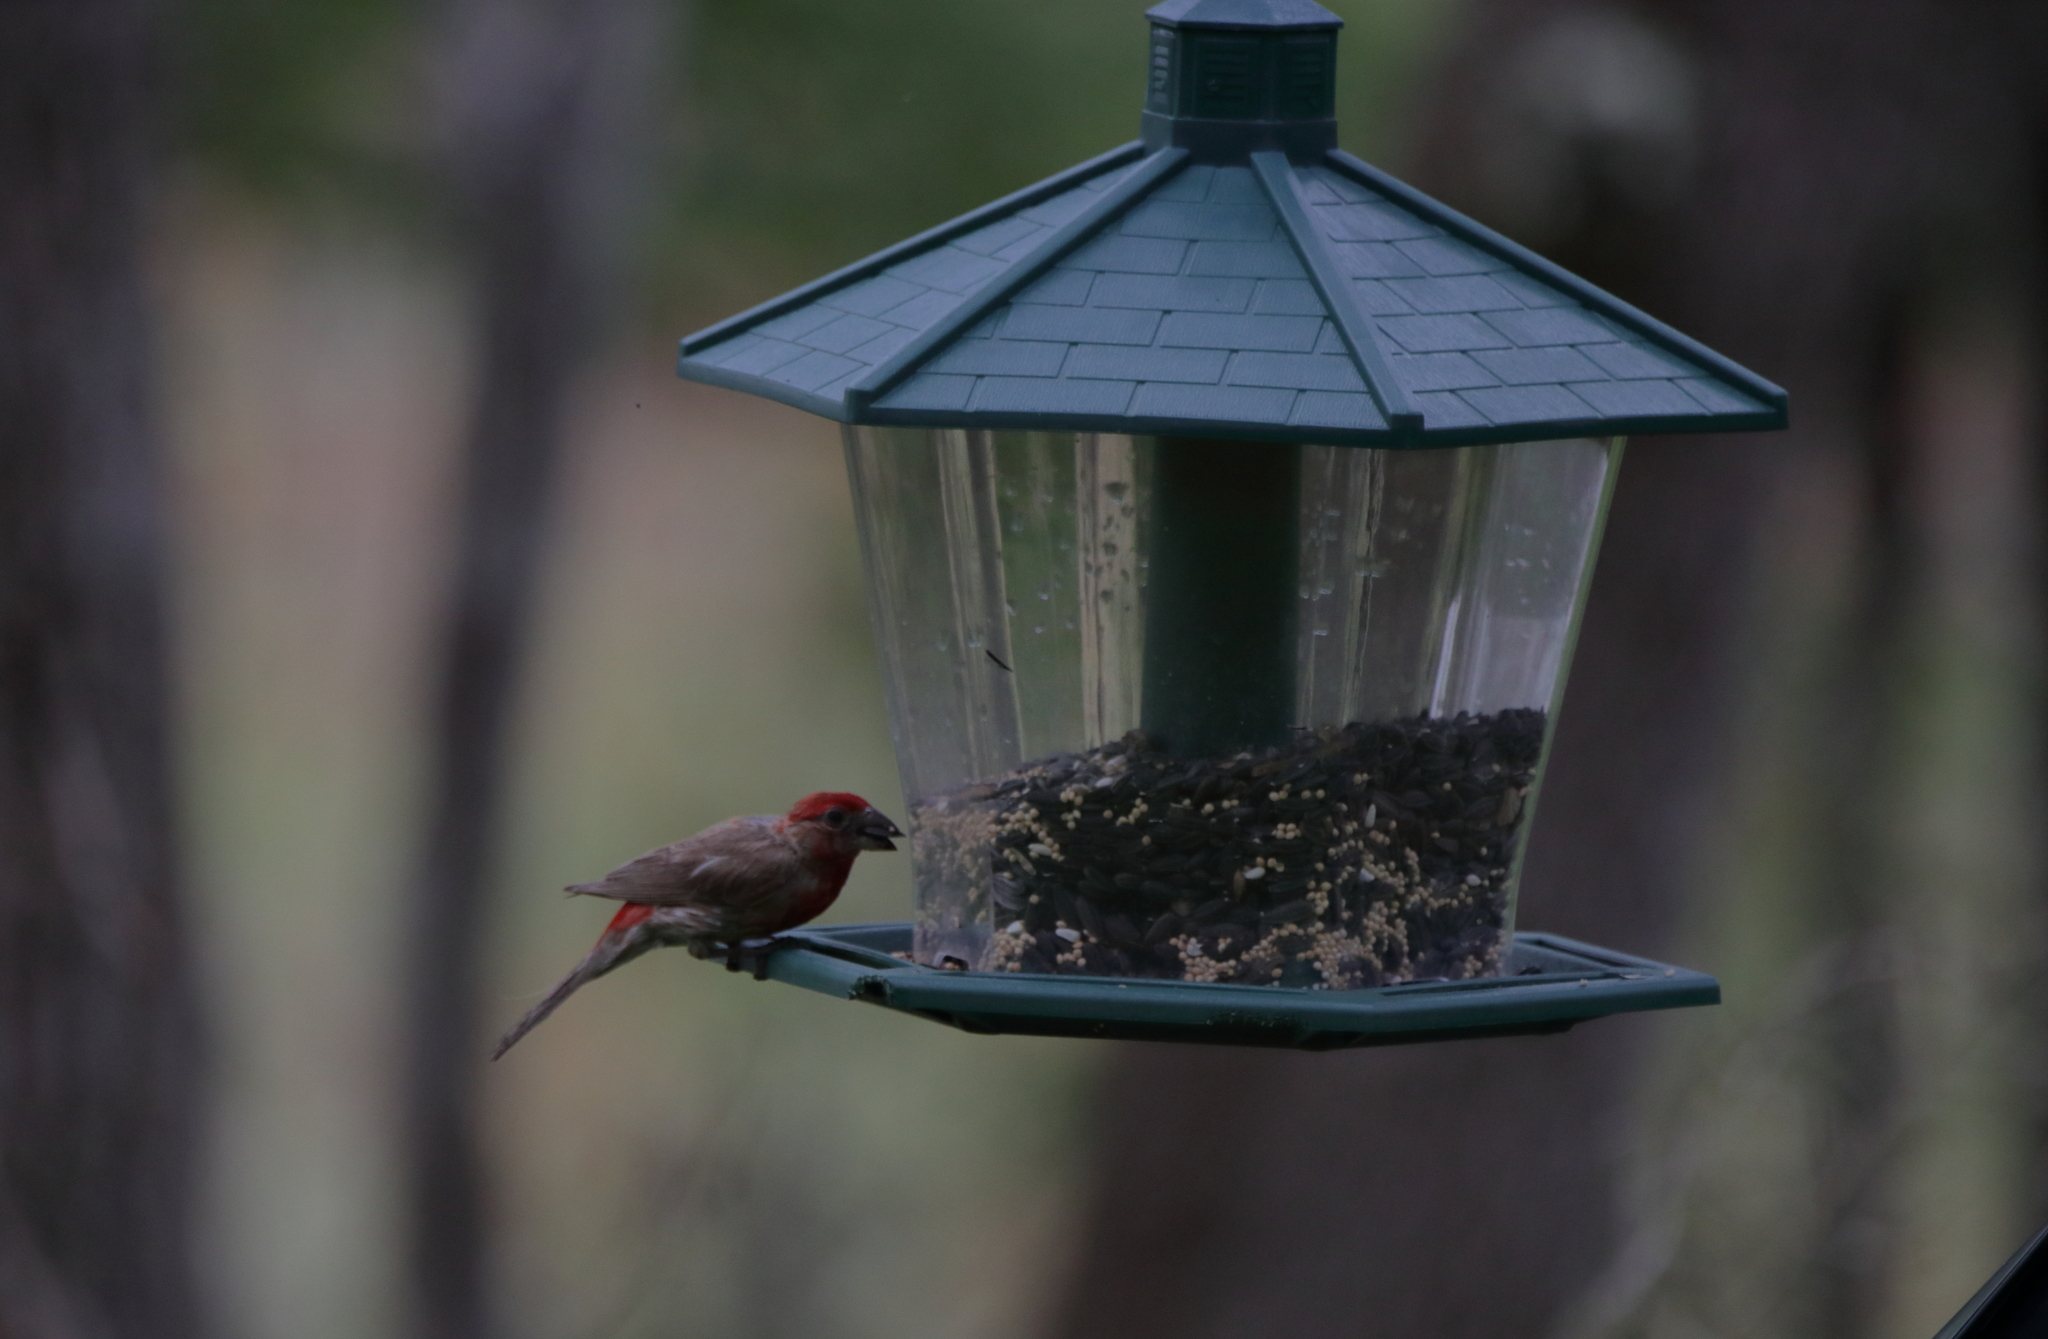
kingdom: Animalia
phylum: Chordata
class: Aves
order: Passeriformes
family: Fringillidae
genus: Haemorhous
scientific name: Haemorhous mexicanus
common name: House finch
